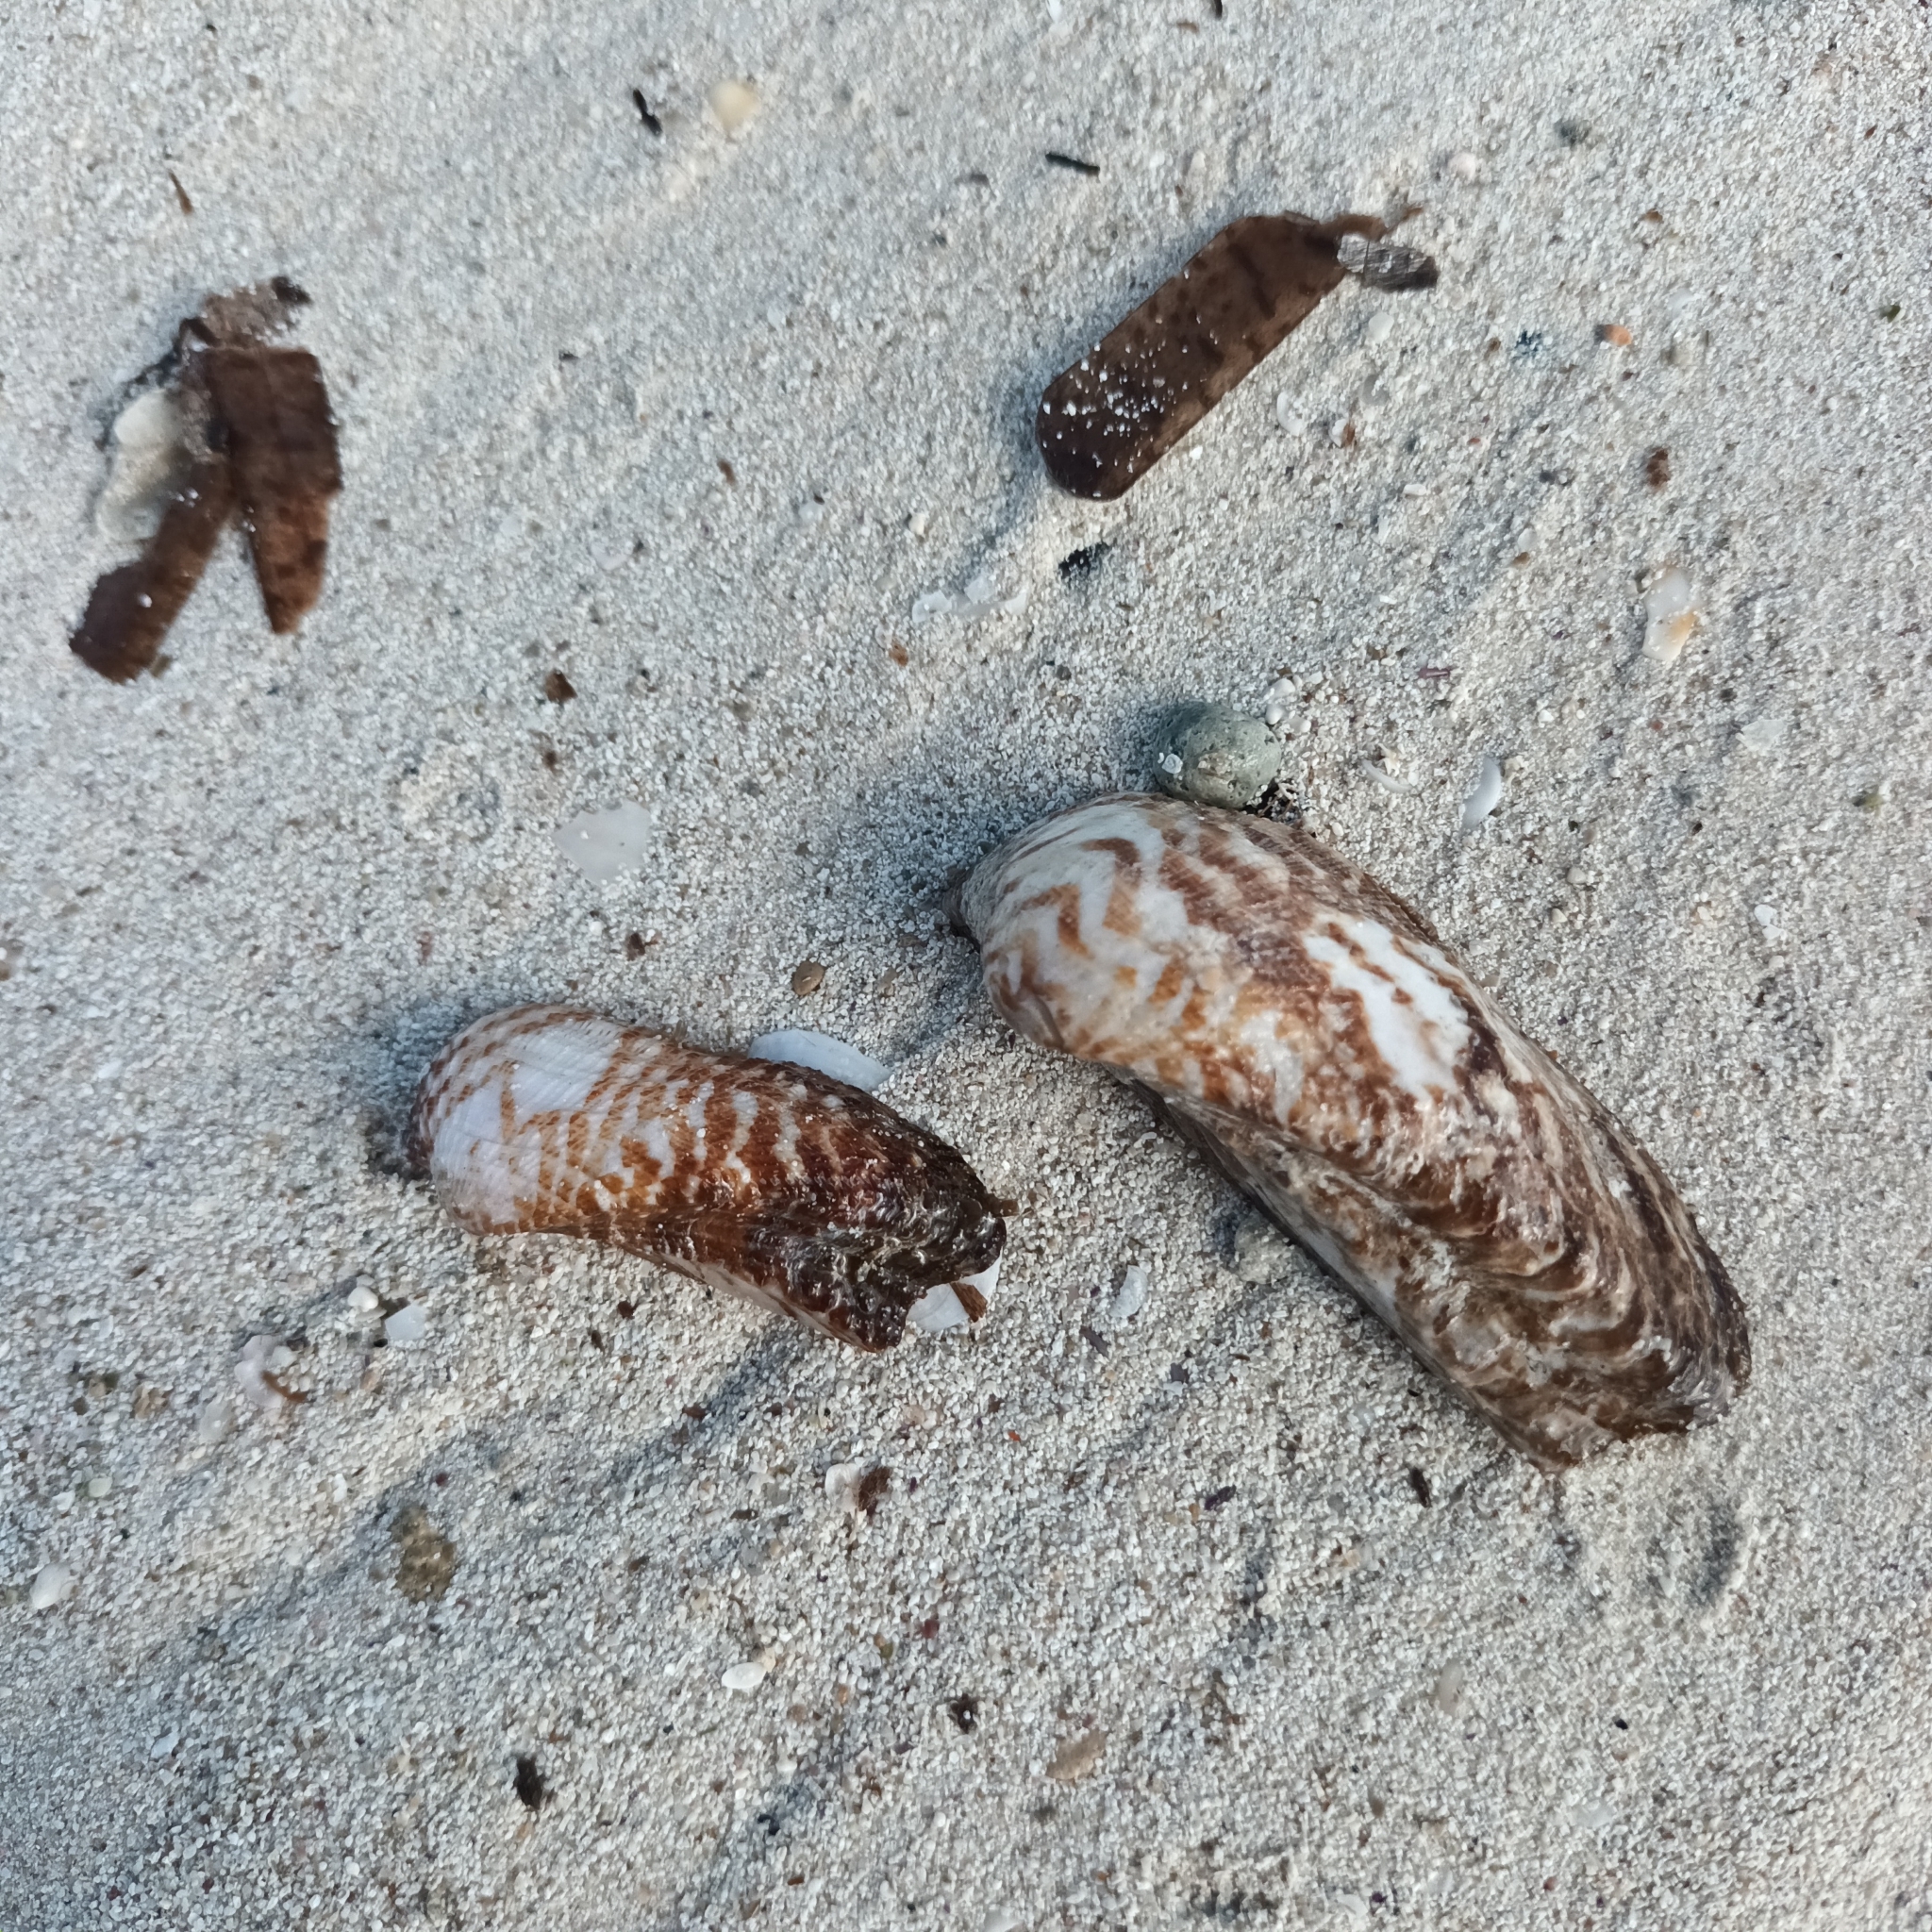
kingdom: Animalia
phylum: Mollusca
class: Bivalvia
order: Arcida
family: Arcidae
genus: Arca
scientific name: Arca noae
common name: Noah's arch
